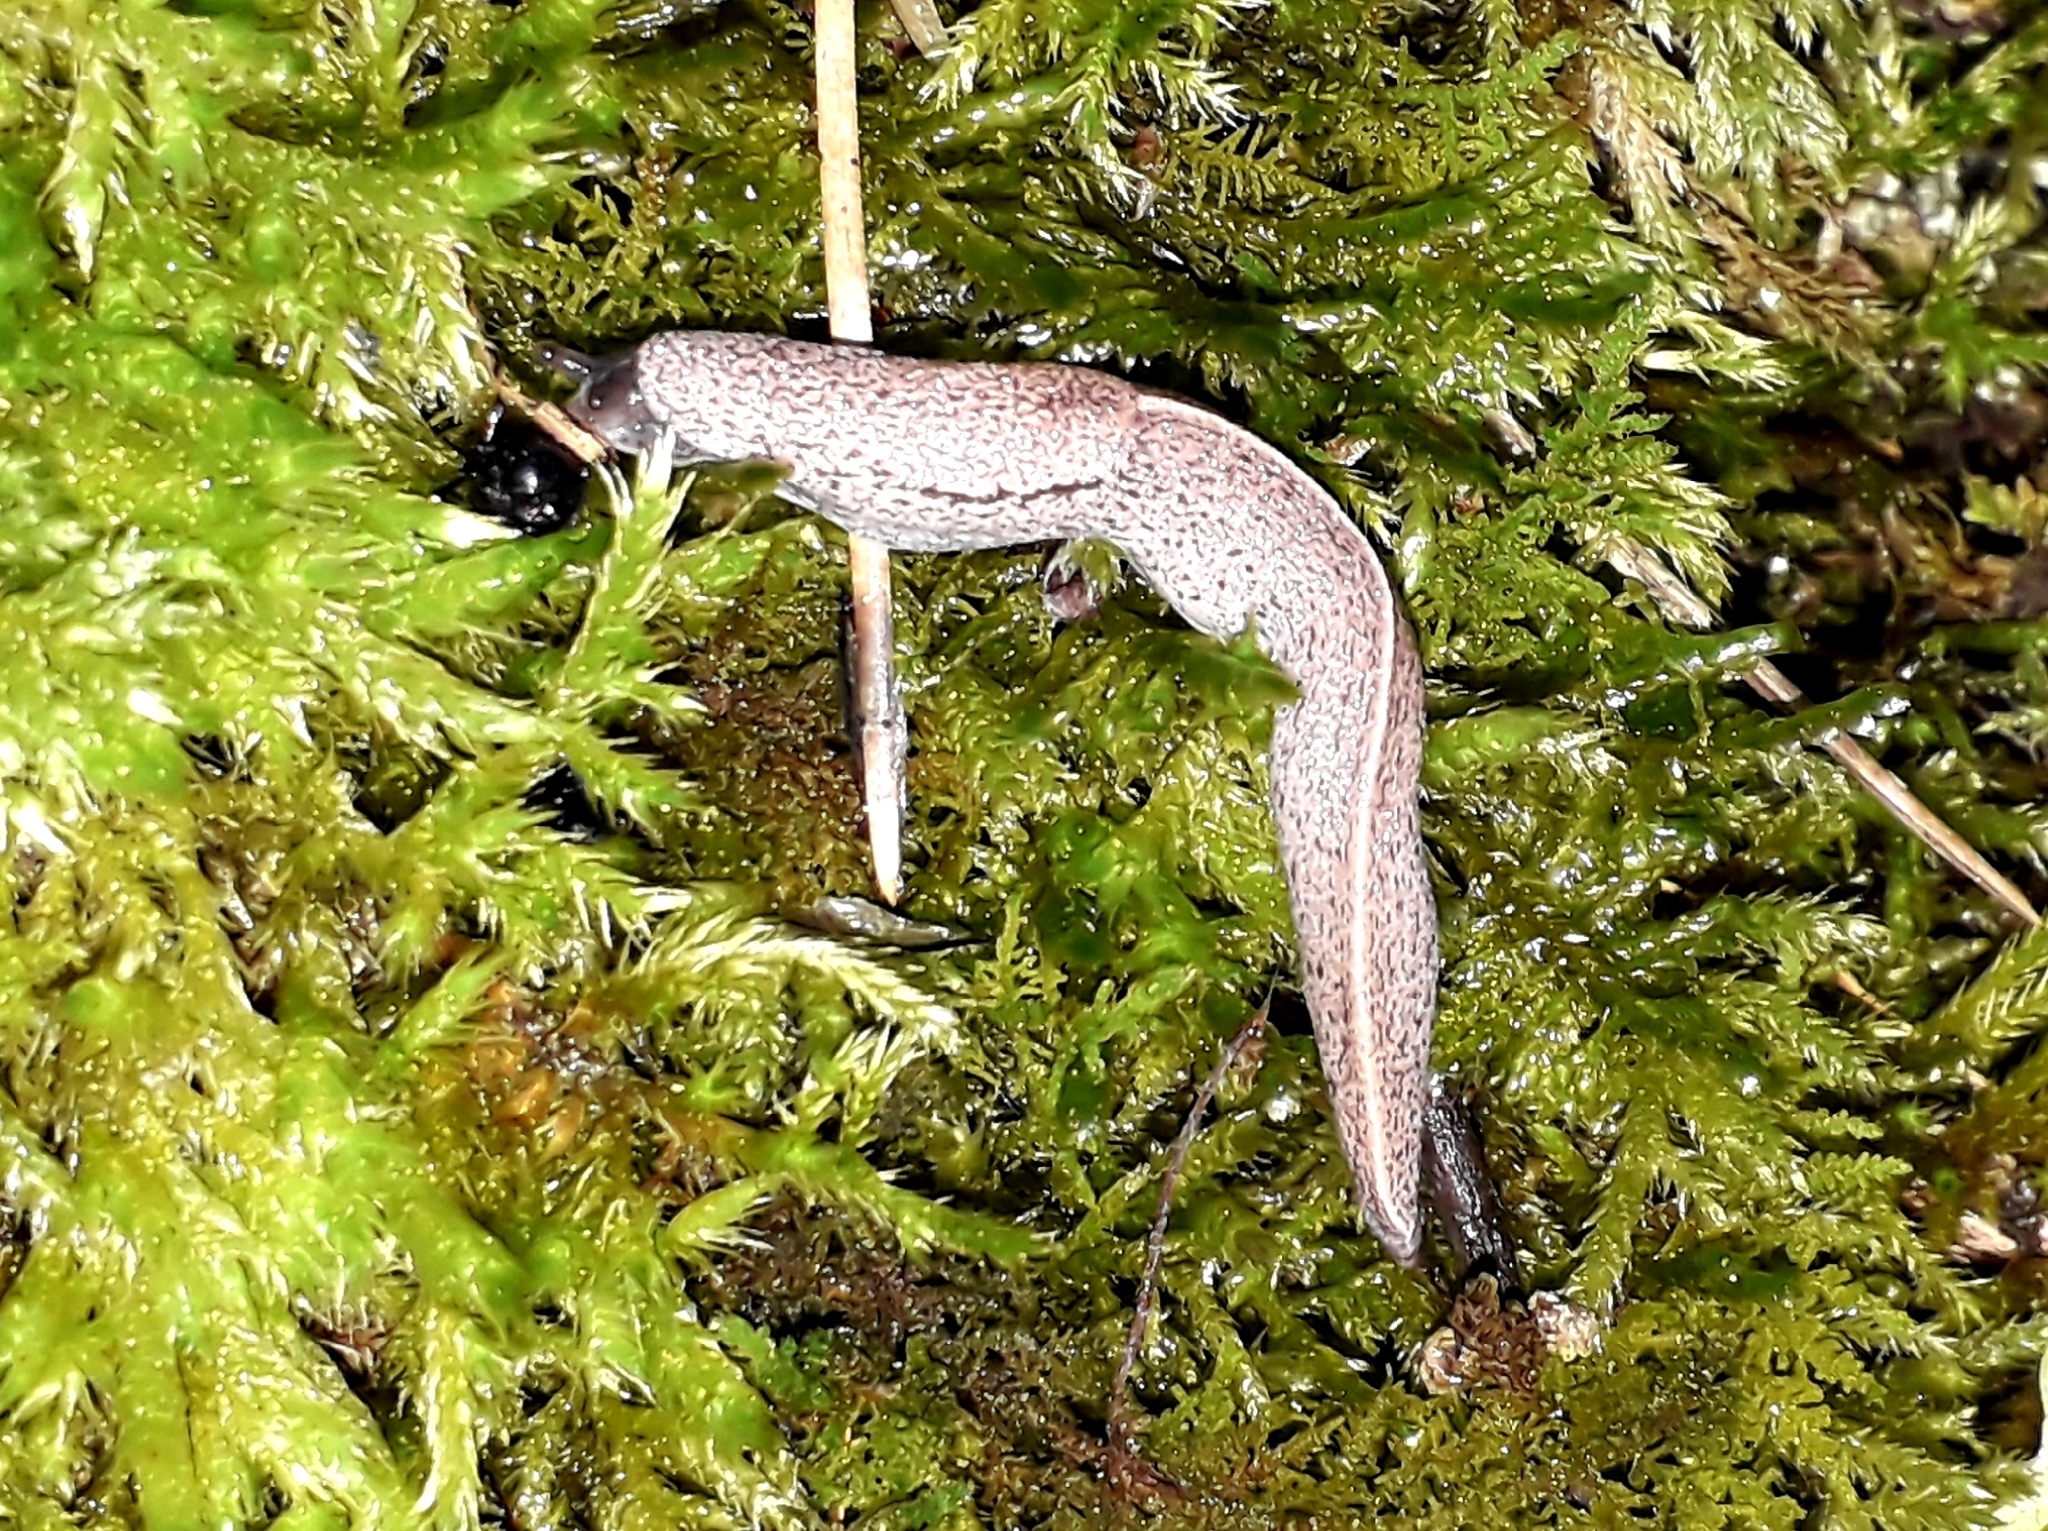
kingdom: Animalia
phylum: Mollusca
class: Gastropoda
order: Stylommatophora
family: Milacidae
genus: Tandonia
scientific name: Tandonia rustica
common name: Bulb-eating slug
